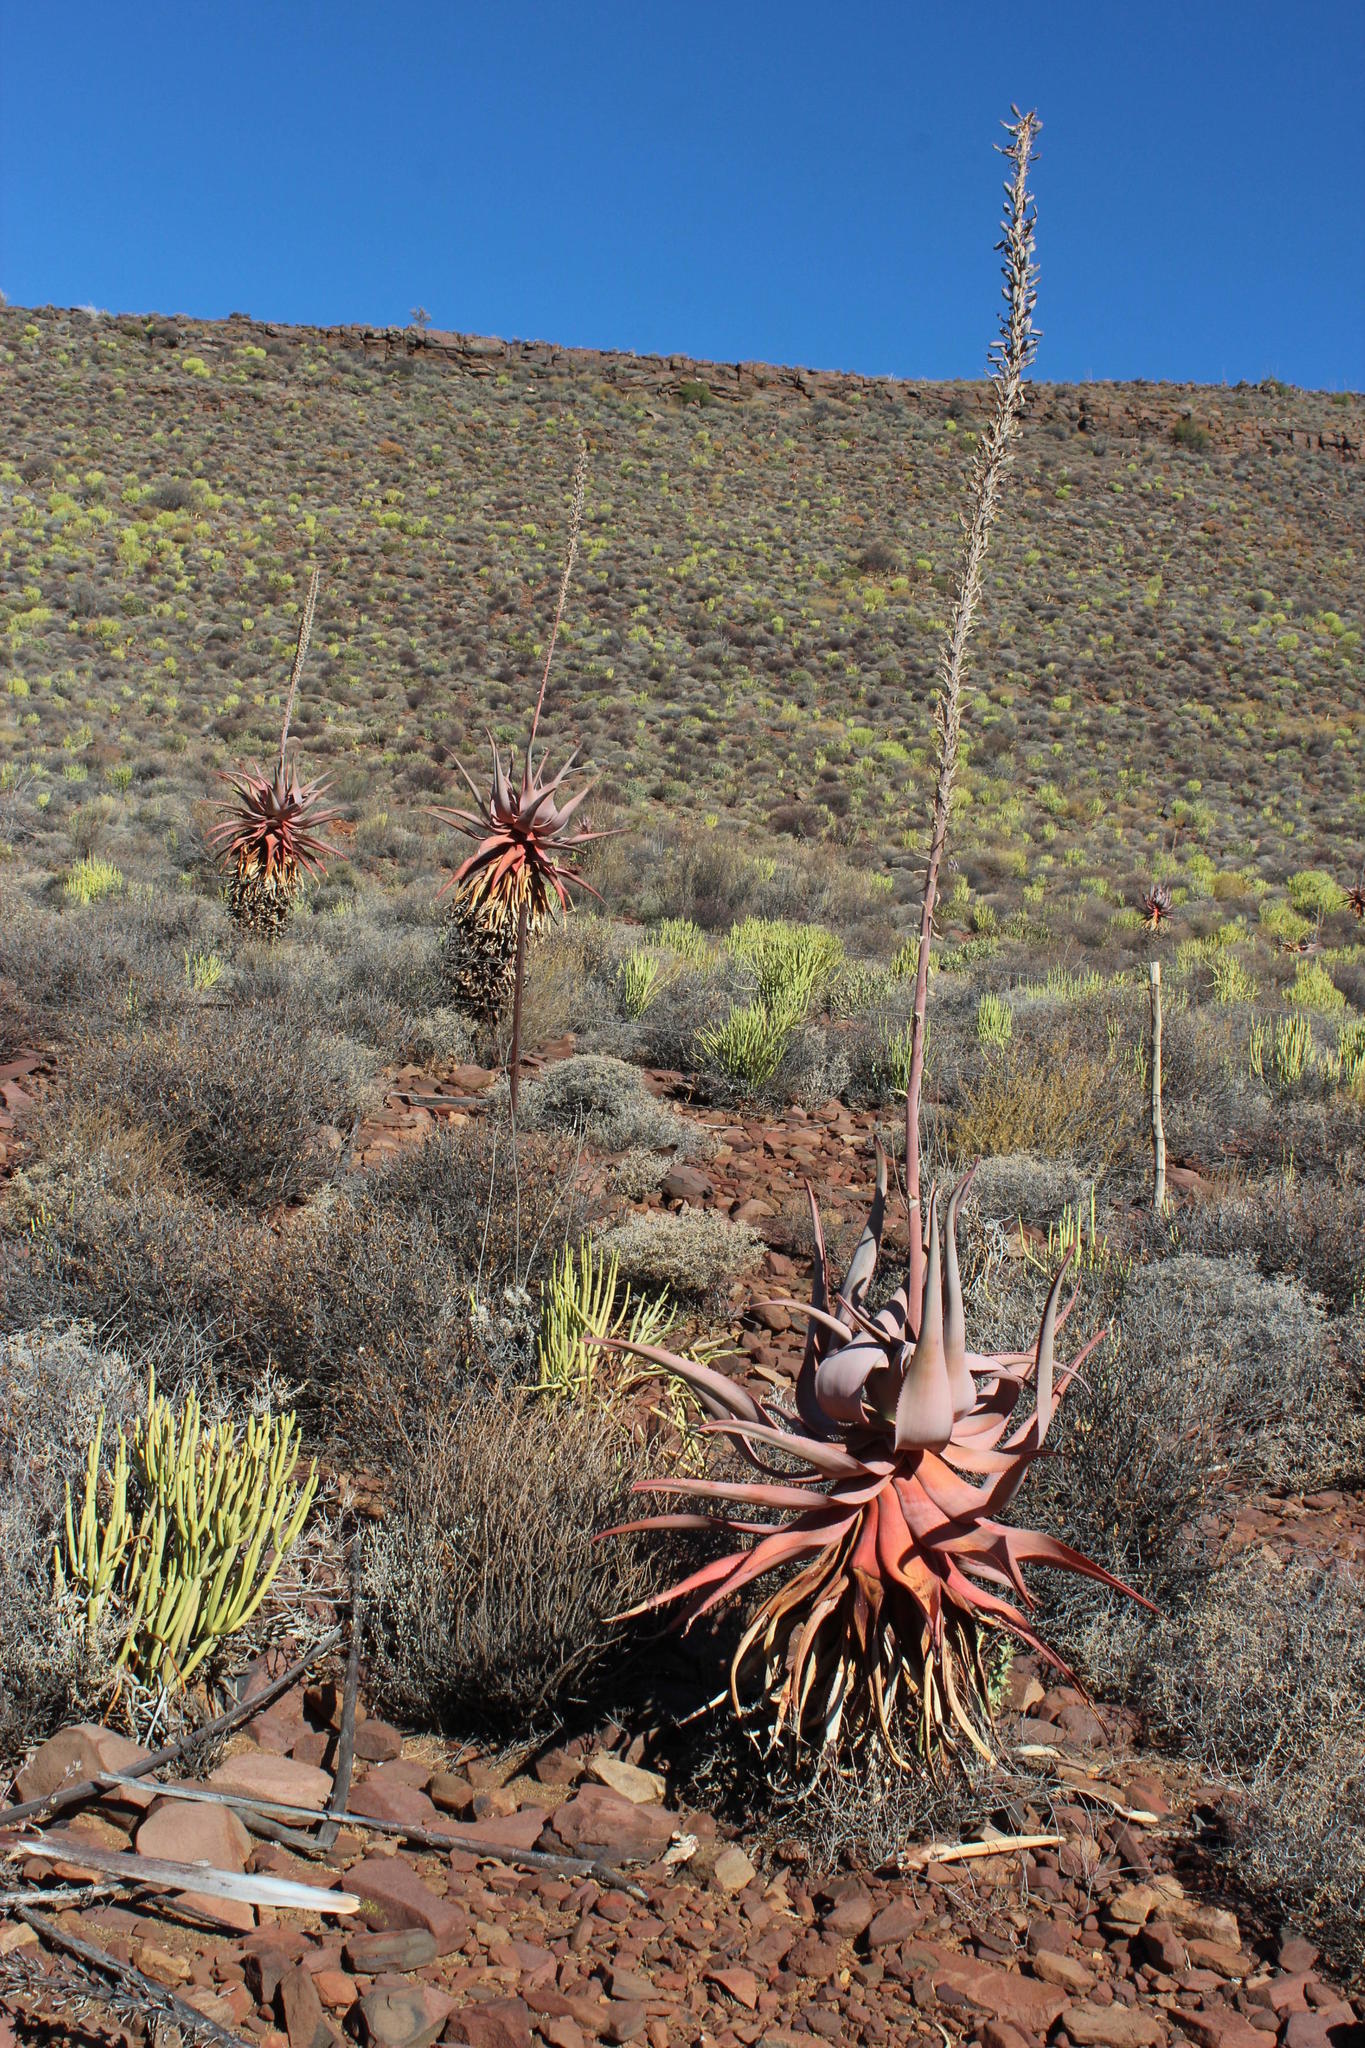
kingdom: Plantae
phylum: Tracheophyta
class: Liliopsida
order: Asparagales
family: Asphodelaceae
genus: Aloe
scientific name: Aloe comosa
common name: Clanwilliam aloe
